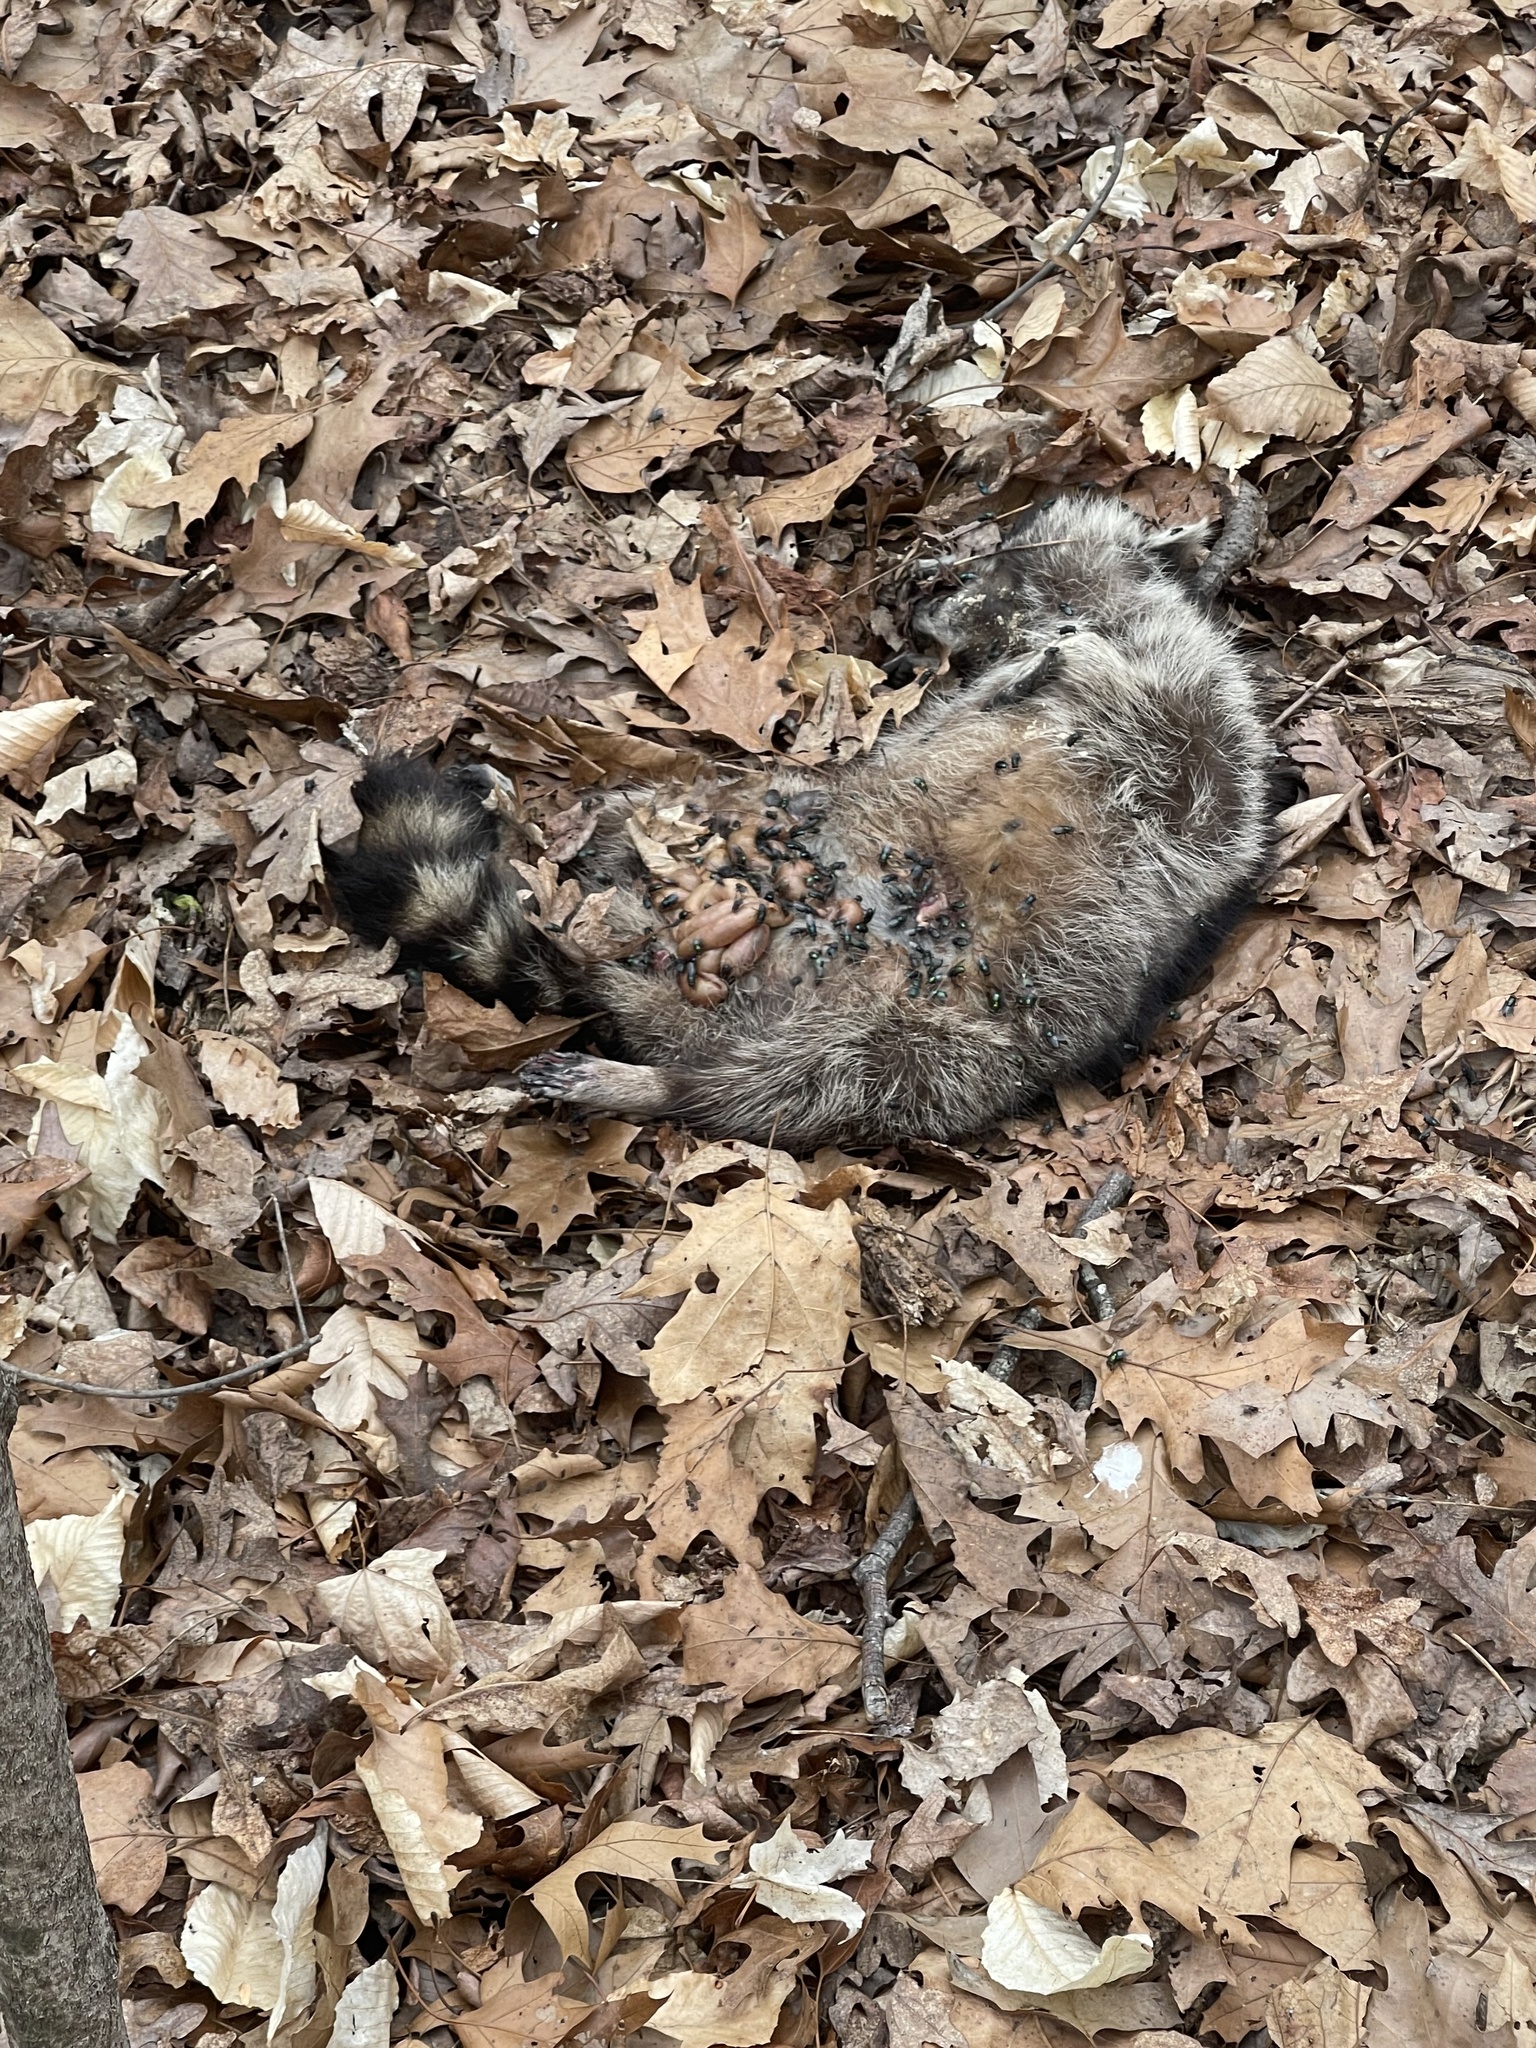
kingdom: Animalia
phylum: Chordata
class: Mammalia
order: Carnivora
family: Procyonidae
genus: Procyon
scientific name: Procyon lotor
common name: Raccoon
